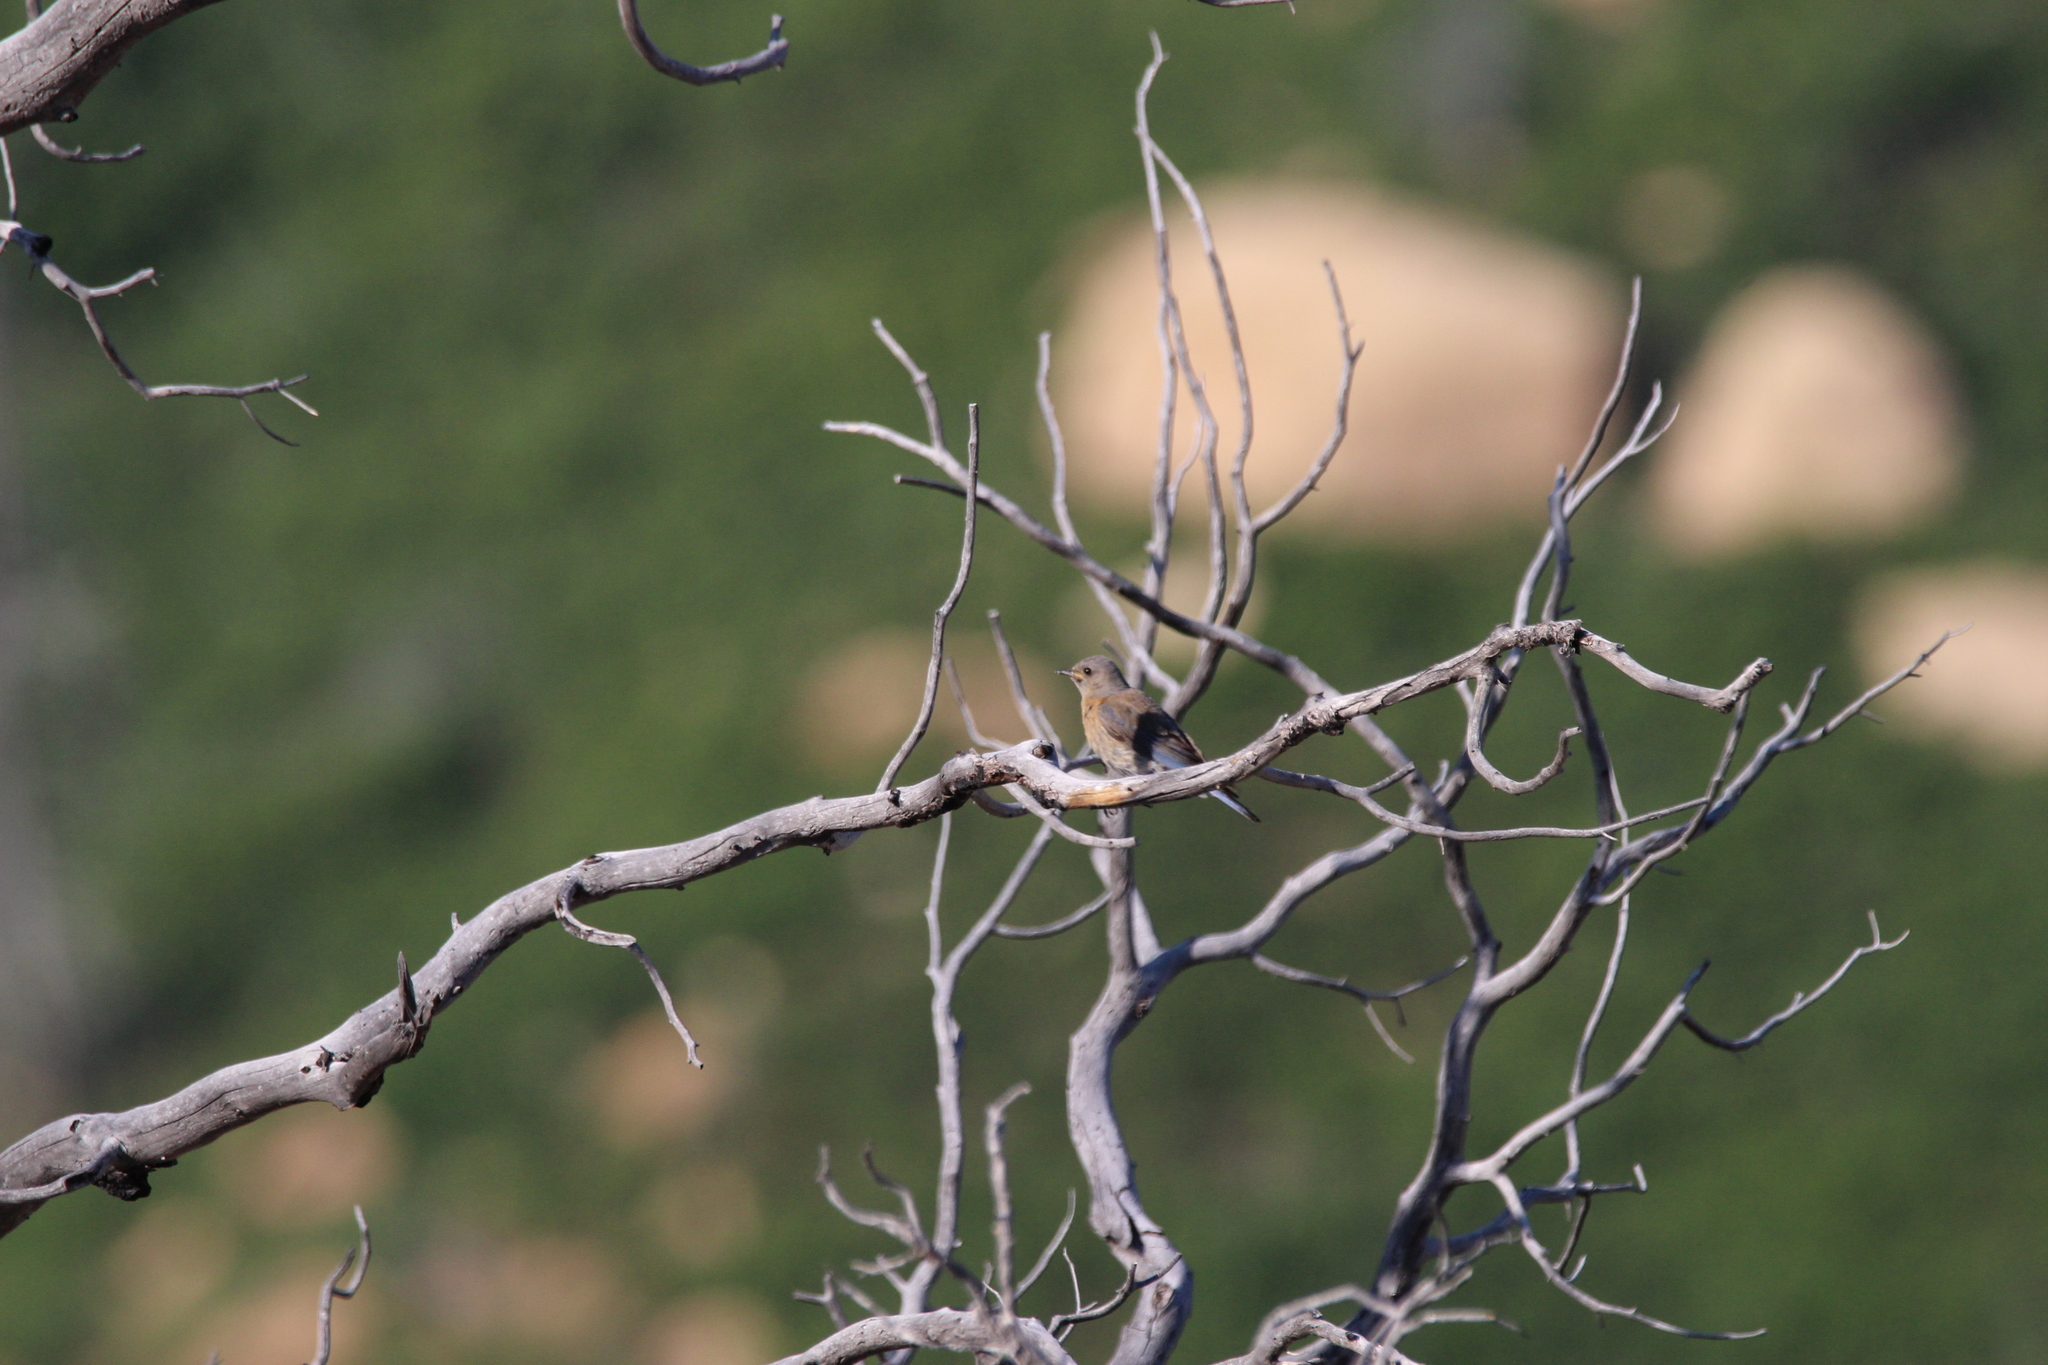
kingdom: Animalia
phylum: Chordata
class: Aves
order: Passeriformes
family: Turdidae
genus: Sialia
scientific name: Sialia mexicana
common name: Western bluebird
